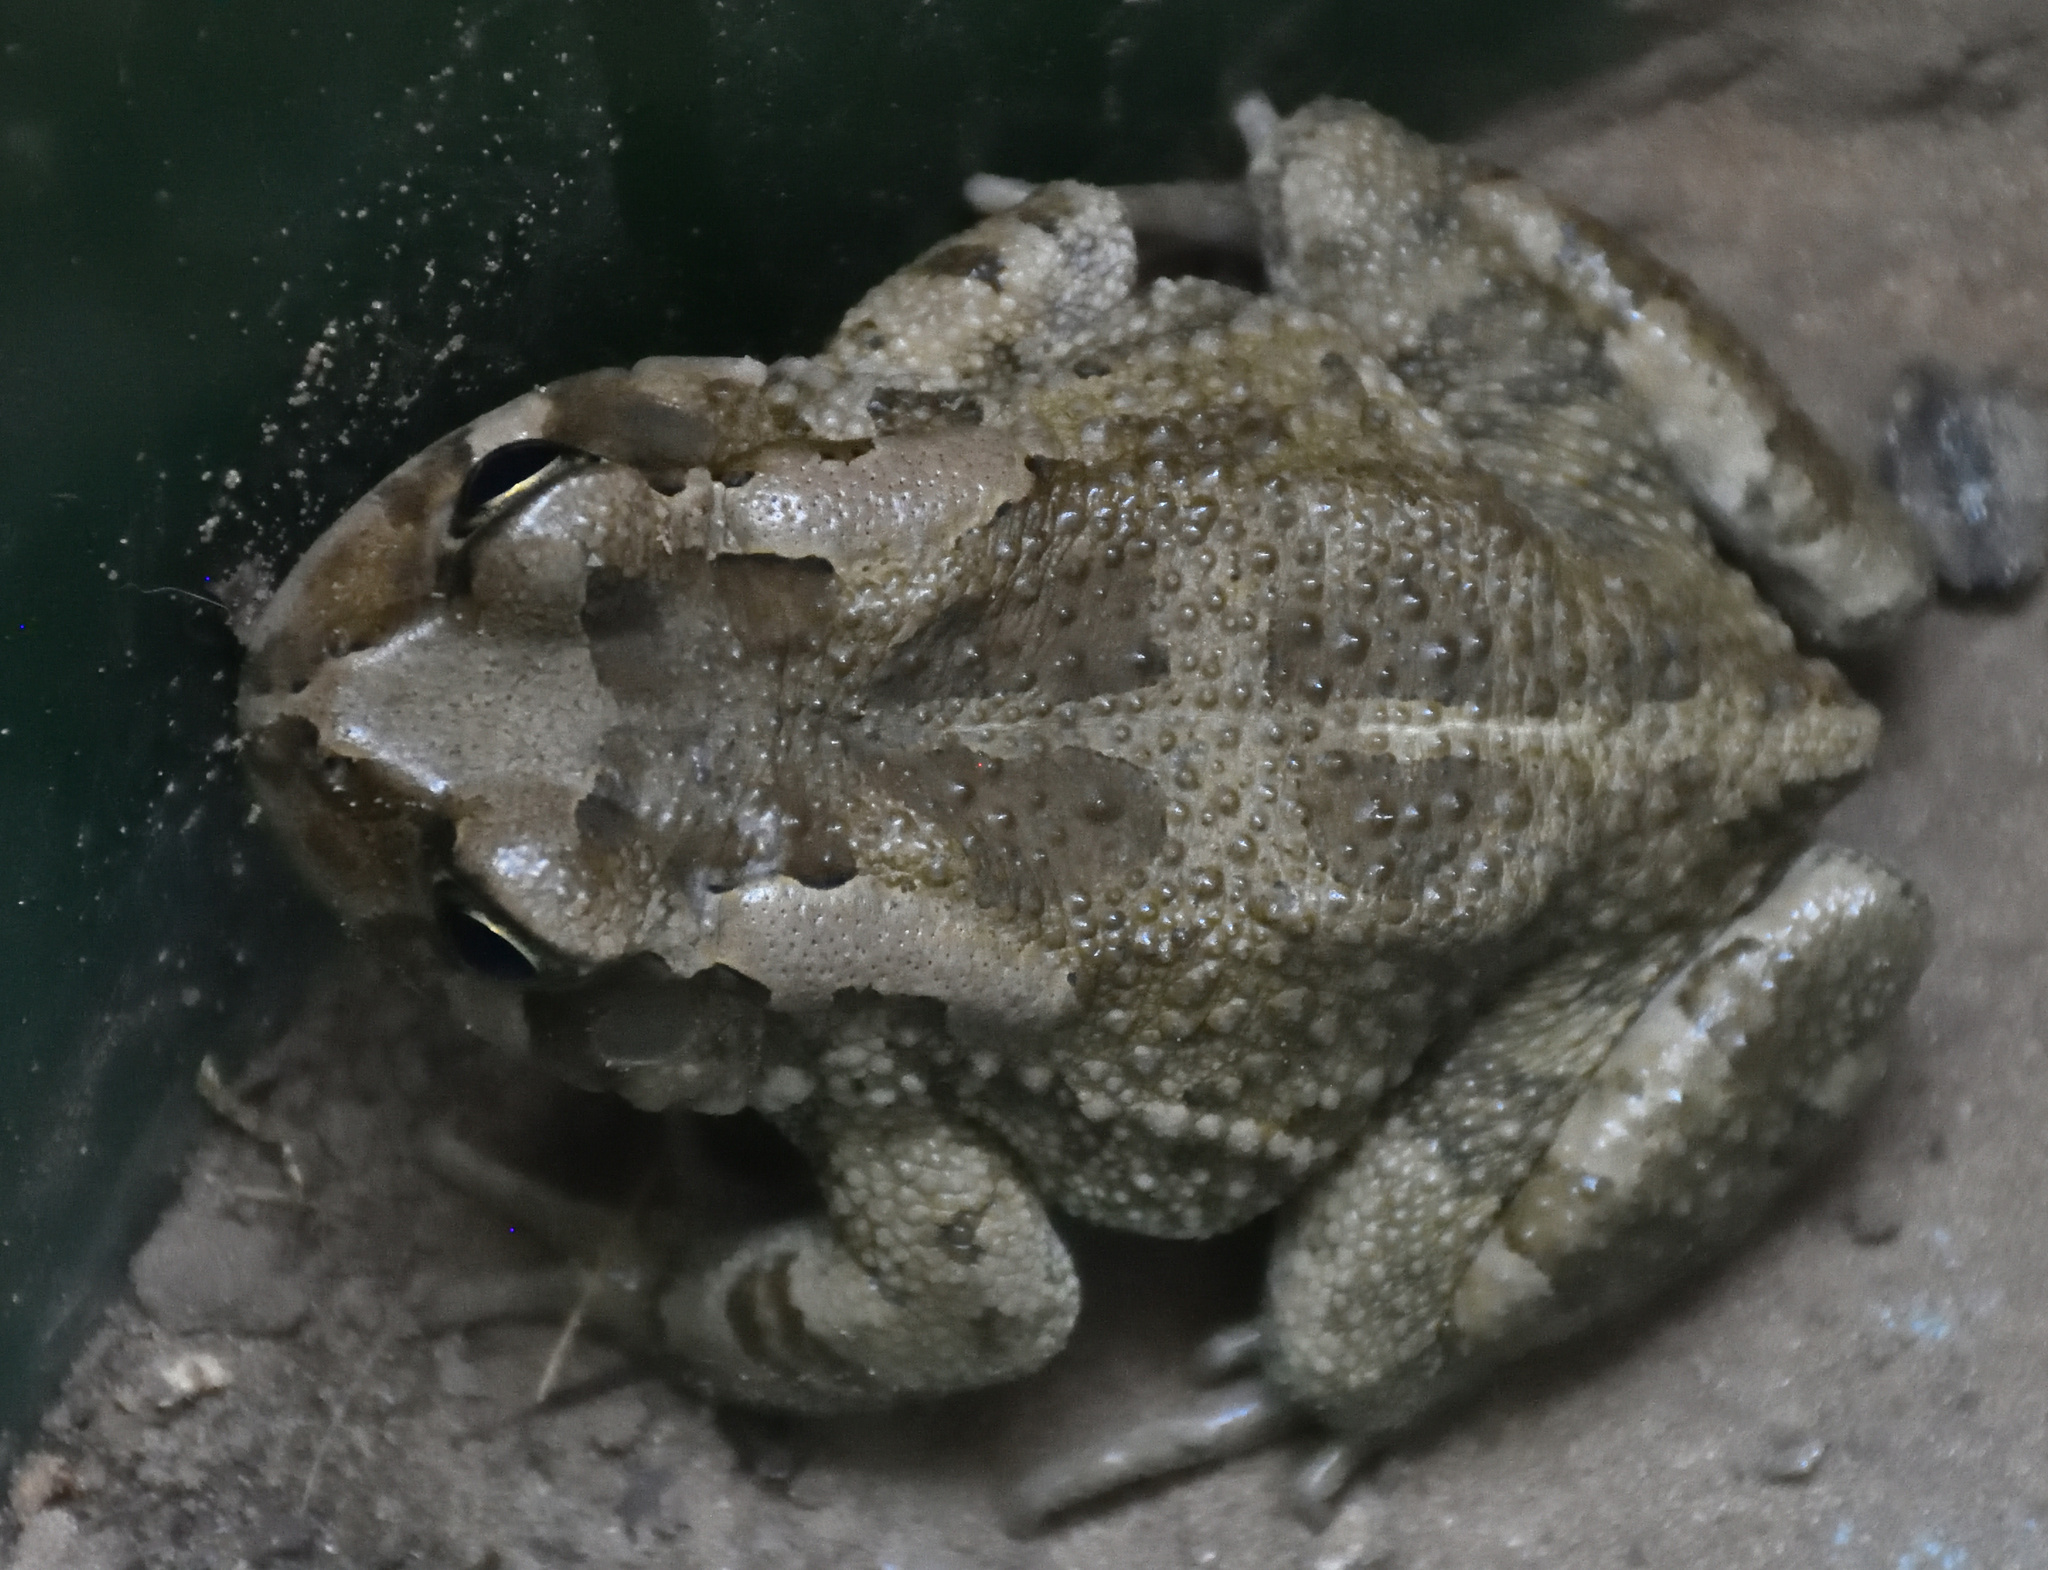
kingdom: Animalia
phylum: Chordata
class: Amphibia
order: Anura
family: Bufonidae
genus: Sclerophrys
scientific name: Sclerophrys capensis
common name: Ranger’s toad
